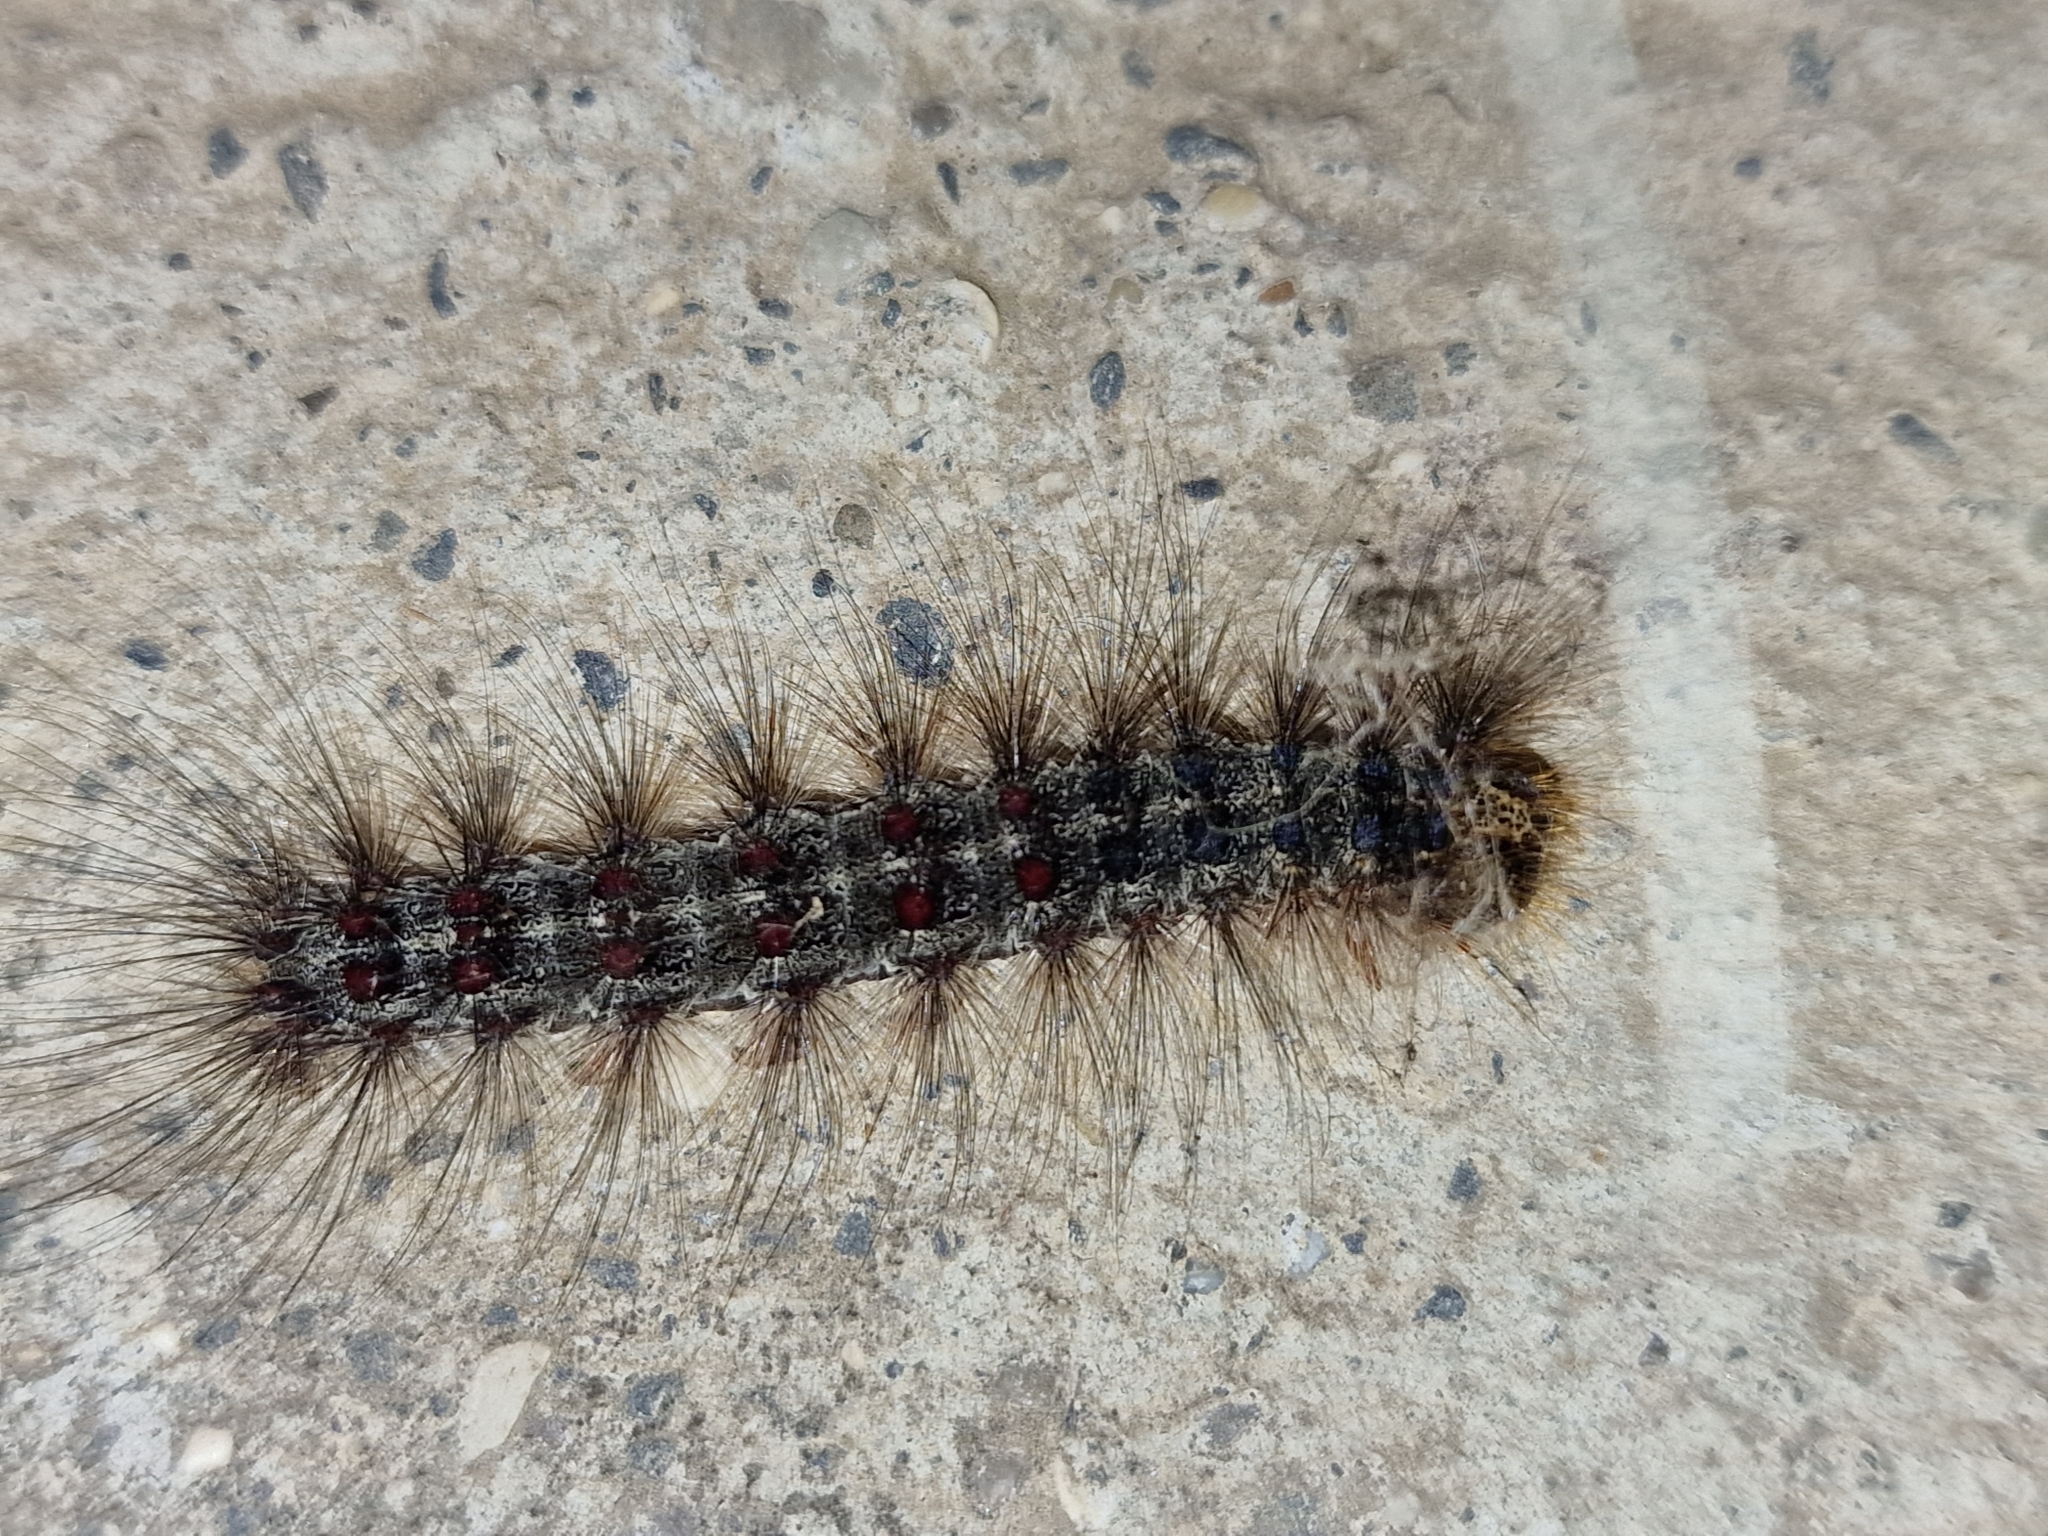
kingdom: Animalia
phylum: Arthropoda
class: Insecta
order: Lepidoptera
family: Erebidae
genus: Lymantria
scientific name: Lymantria dispar
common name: Gypsy moth
